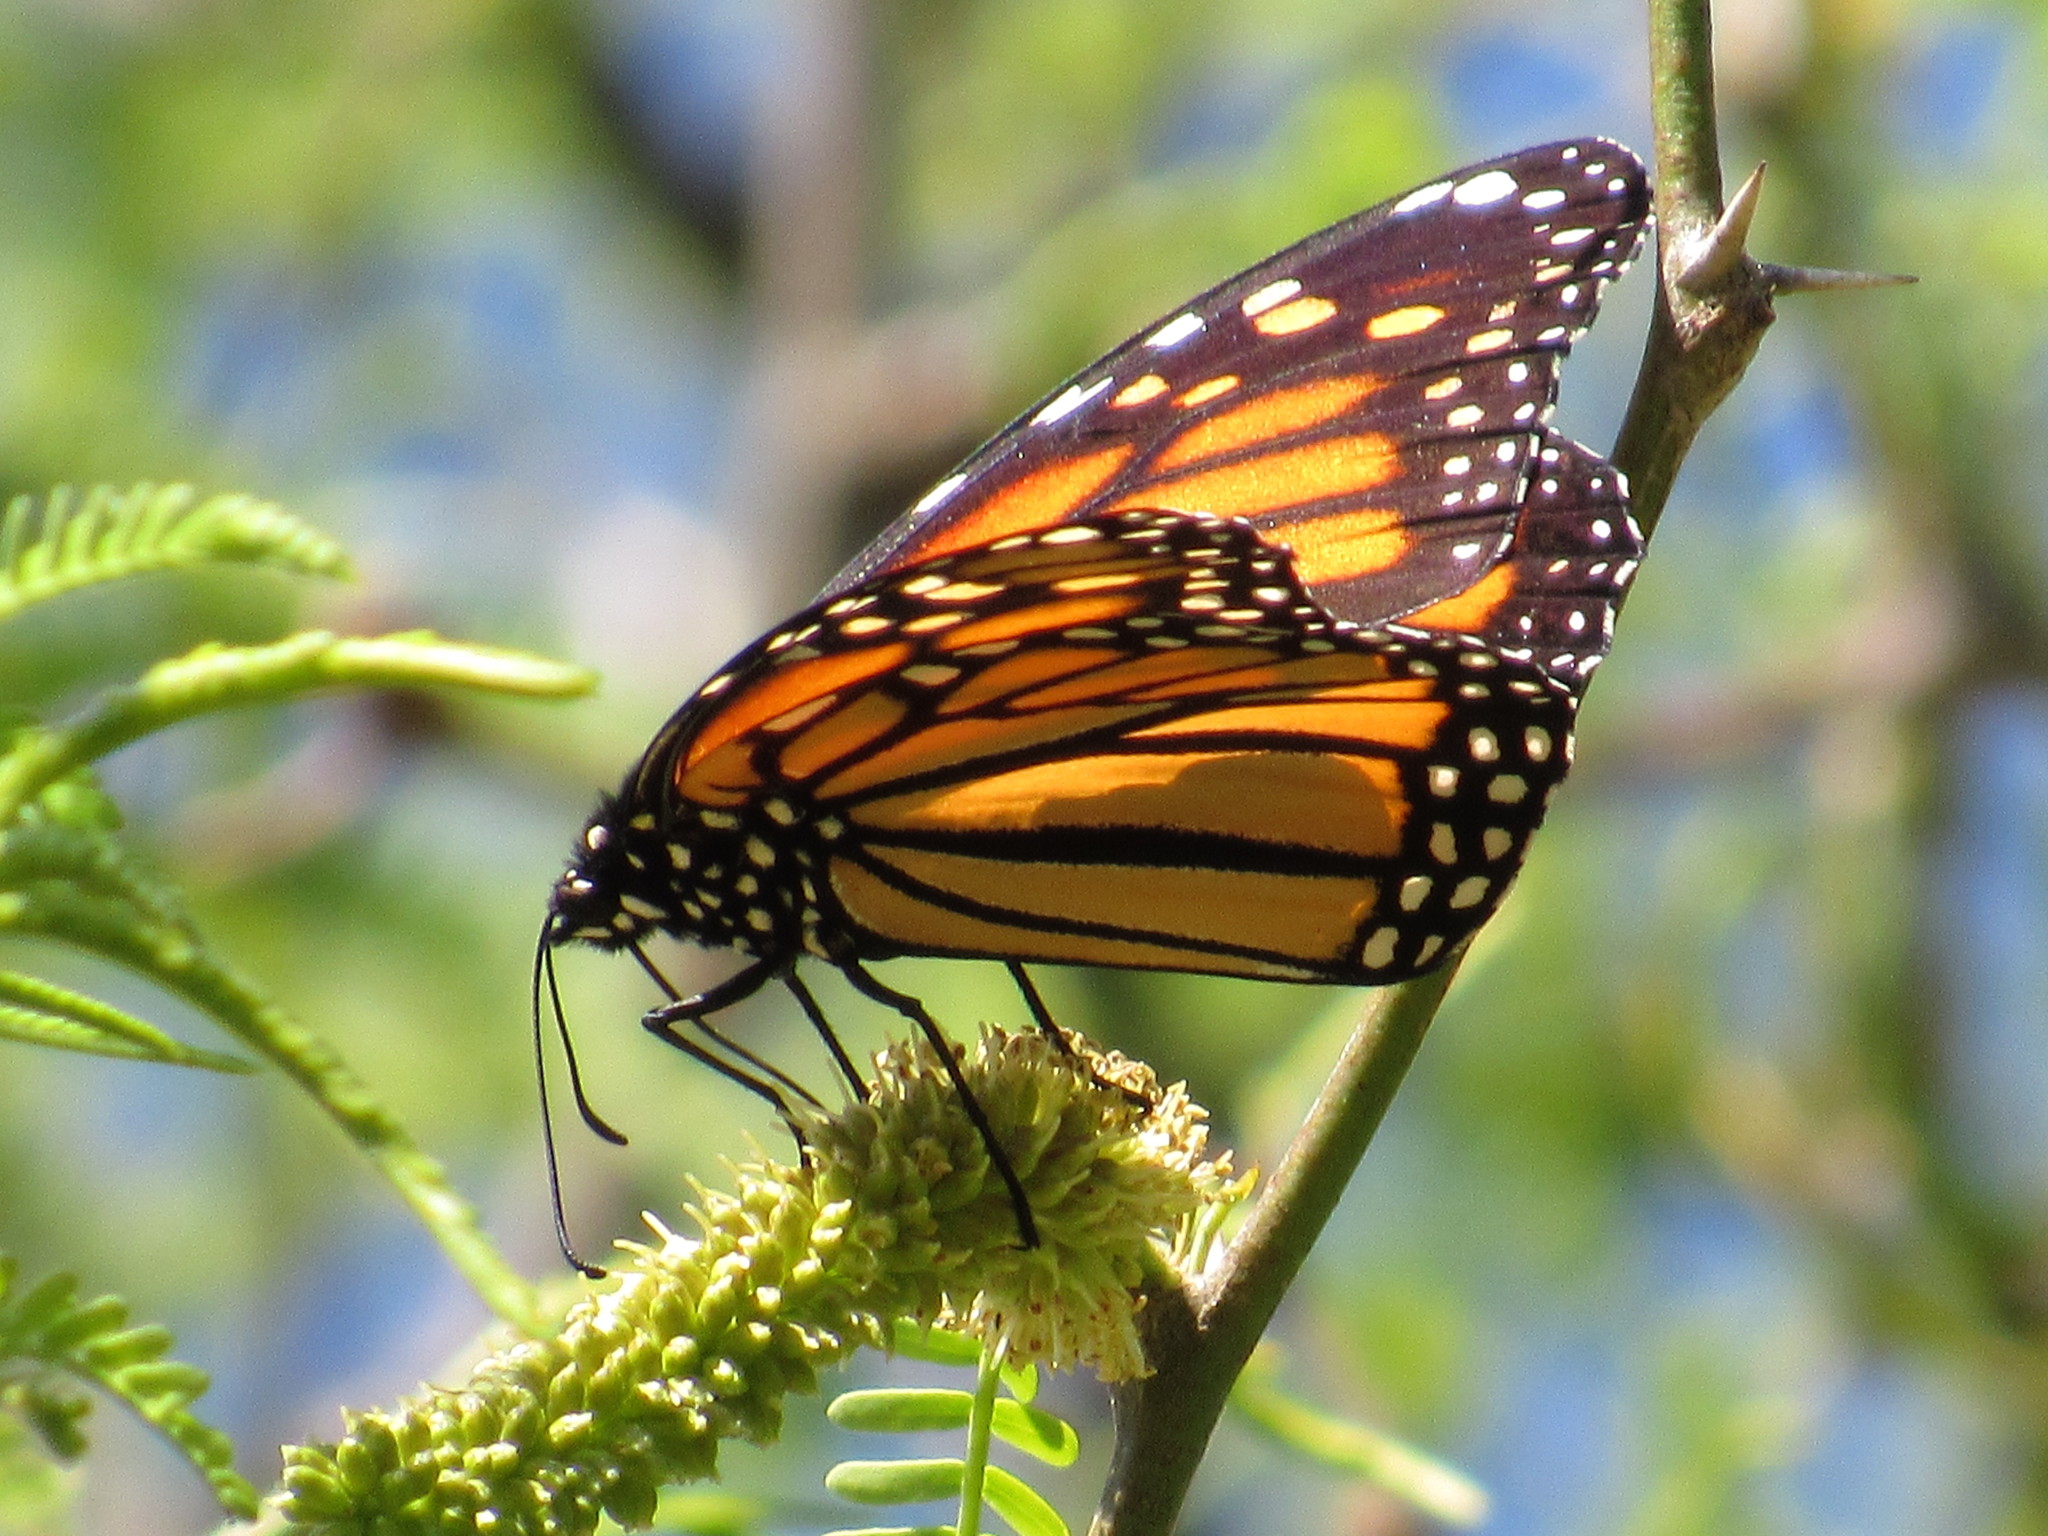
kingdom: Animalia
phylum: Arthropoda
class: Insecta
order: Lepidoptera
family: Nymphalidae
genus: Danaus
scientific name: Danaus plexippus
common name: Monarch
